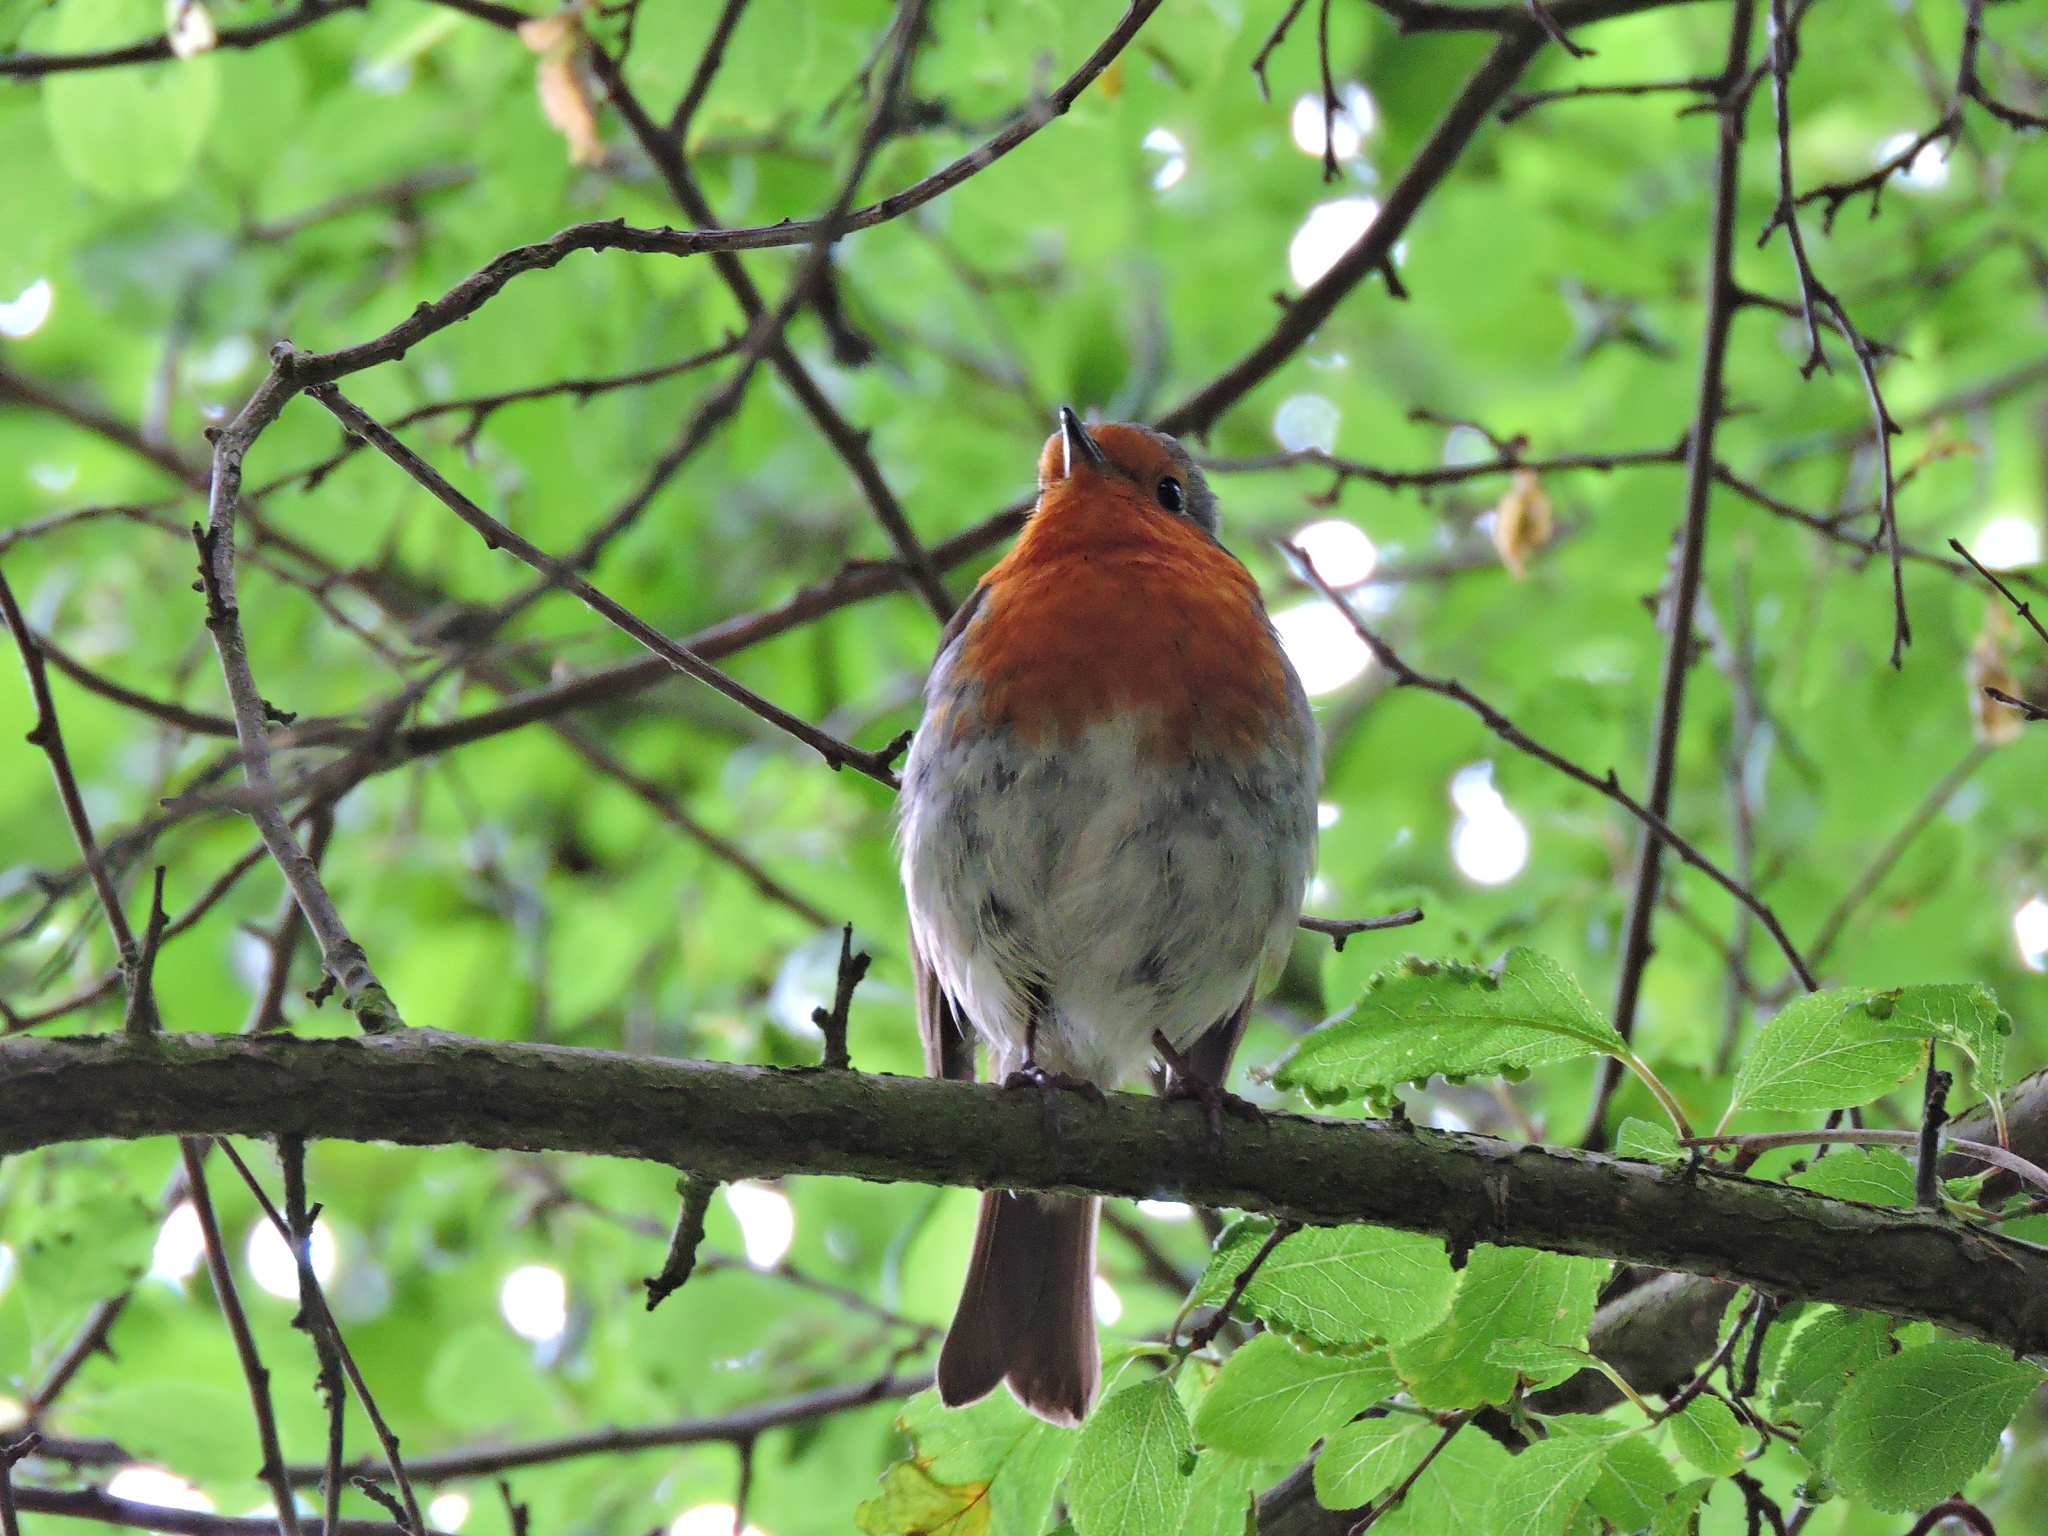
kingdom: Animalia
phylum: Chordata
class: Aves
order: Passeriformes
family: Muscicapidae
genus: Erithacus
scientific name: Erithacus rubecula
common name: European robin
